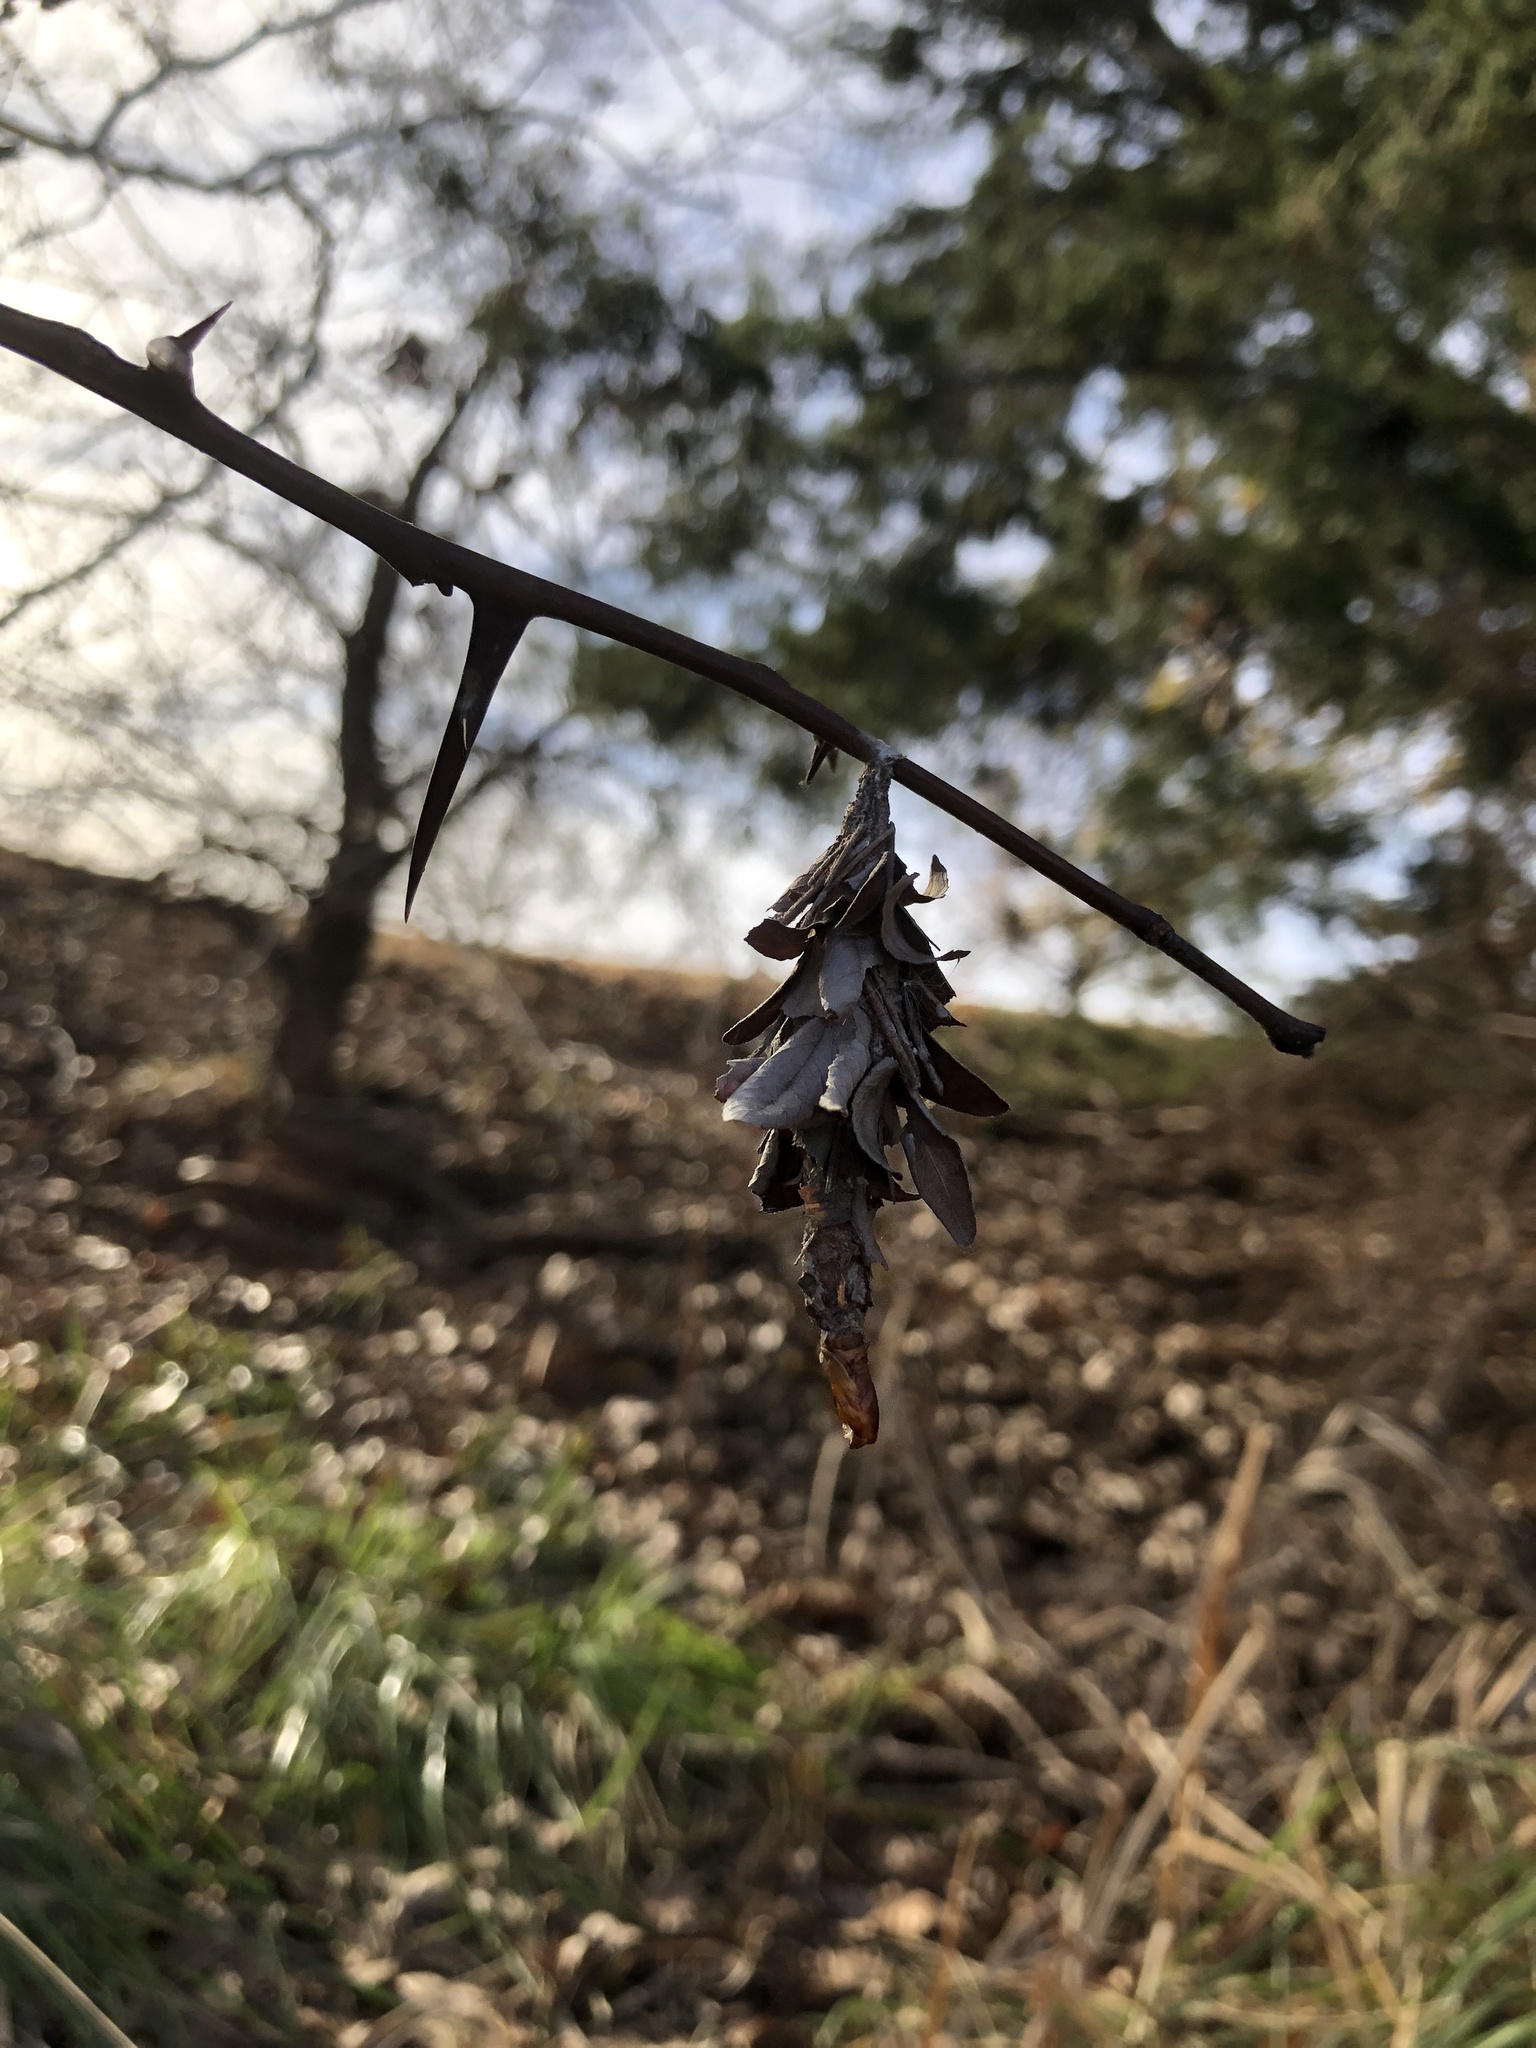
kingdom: Animalia
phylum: Arthropoda
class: Insecta
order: Lepidoptera
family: Psychidae
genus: Thyridopteryx
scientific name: Thyridopteryx ephemeraeformis
